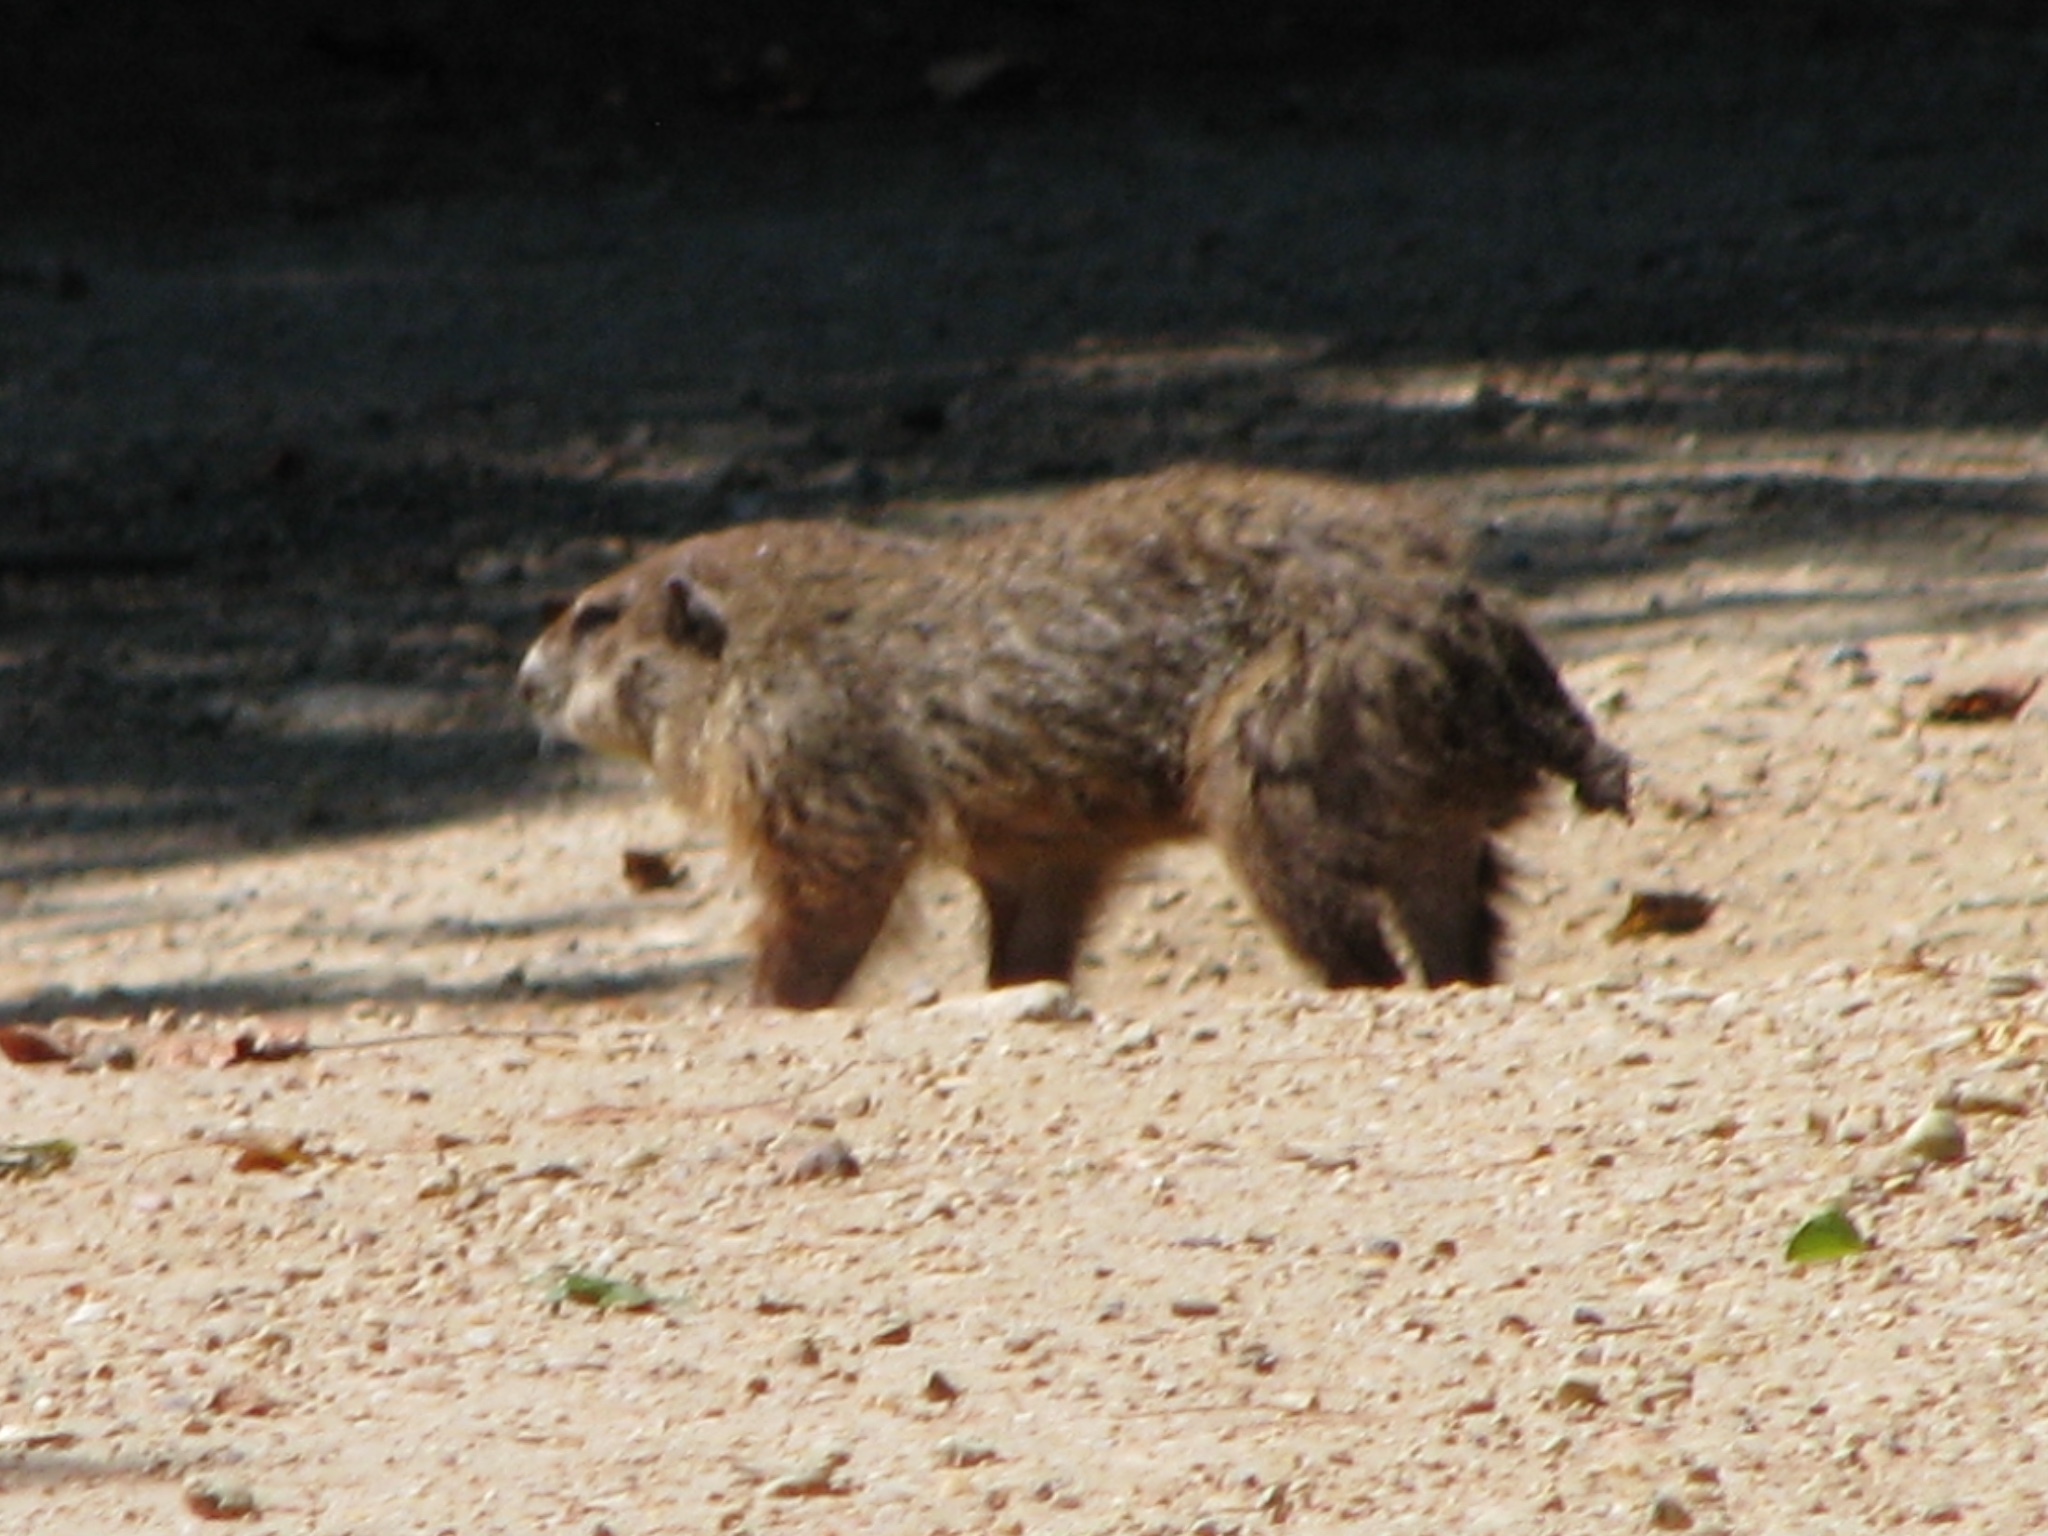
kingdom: Animalia
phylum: Chordata
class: Mammalia
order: Rodentia
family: Sciuridae
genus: Marmota
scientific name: Marmota monax
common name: Groundhog
